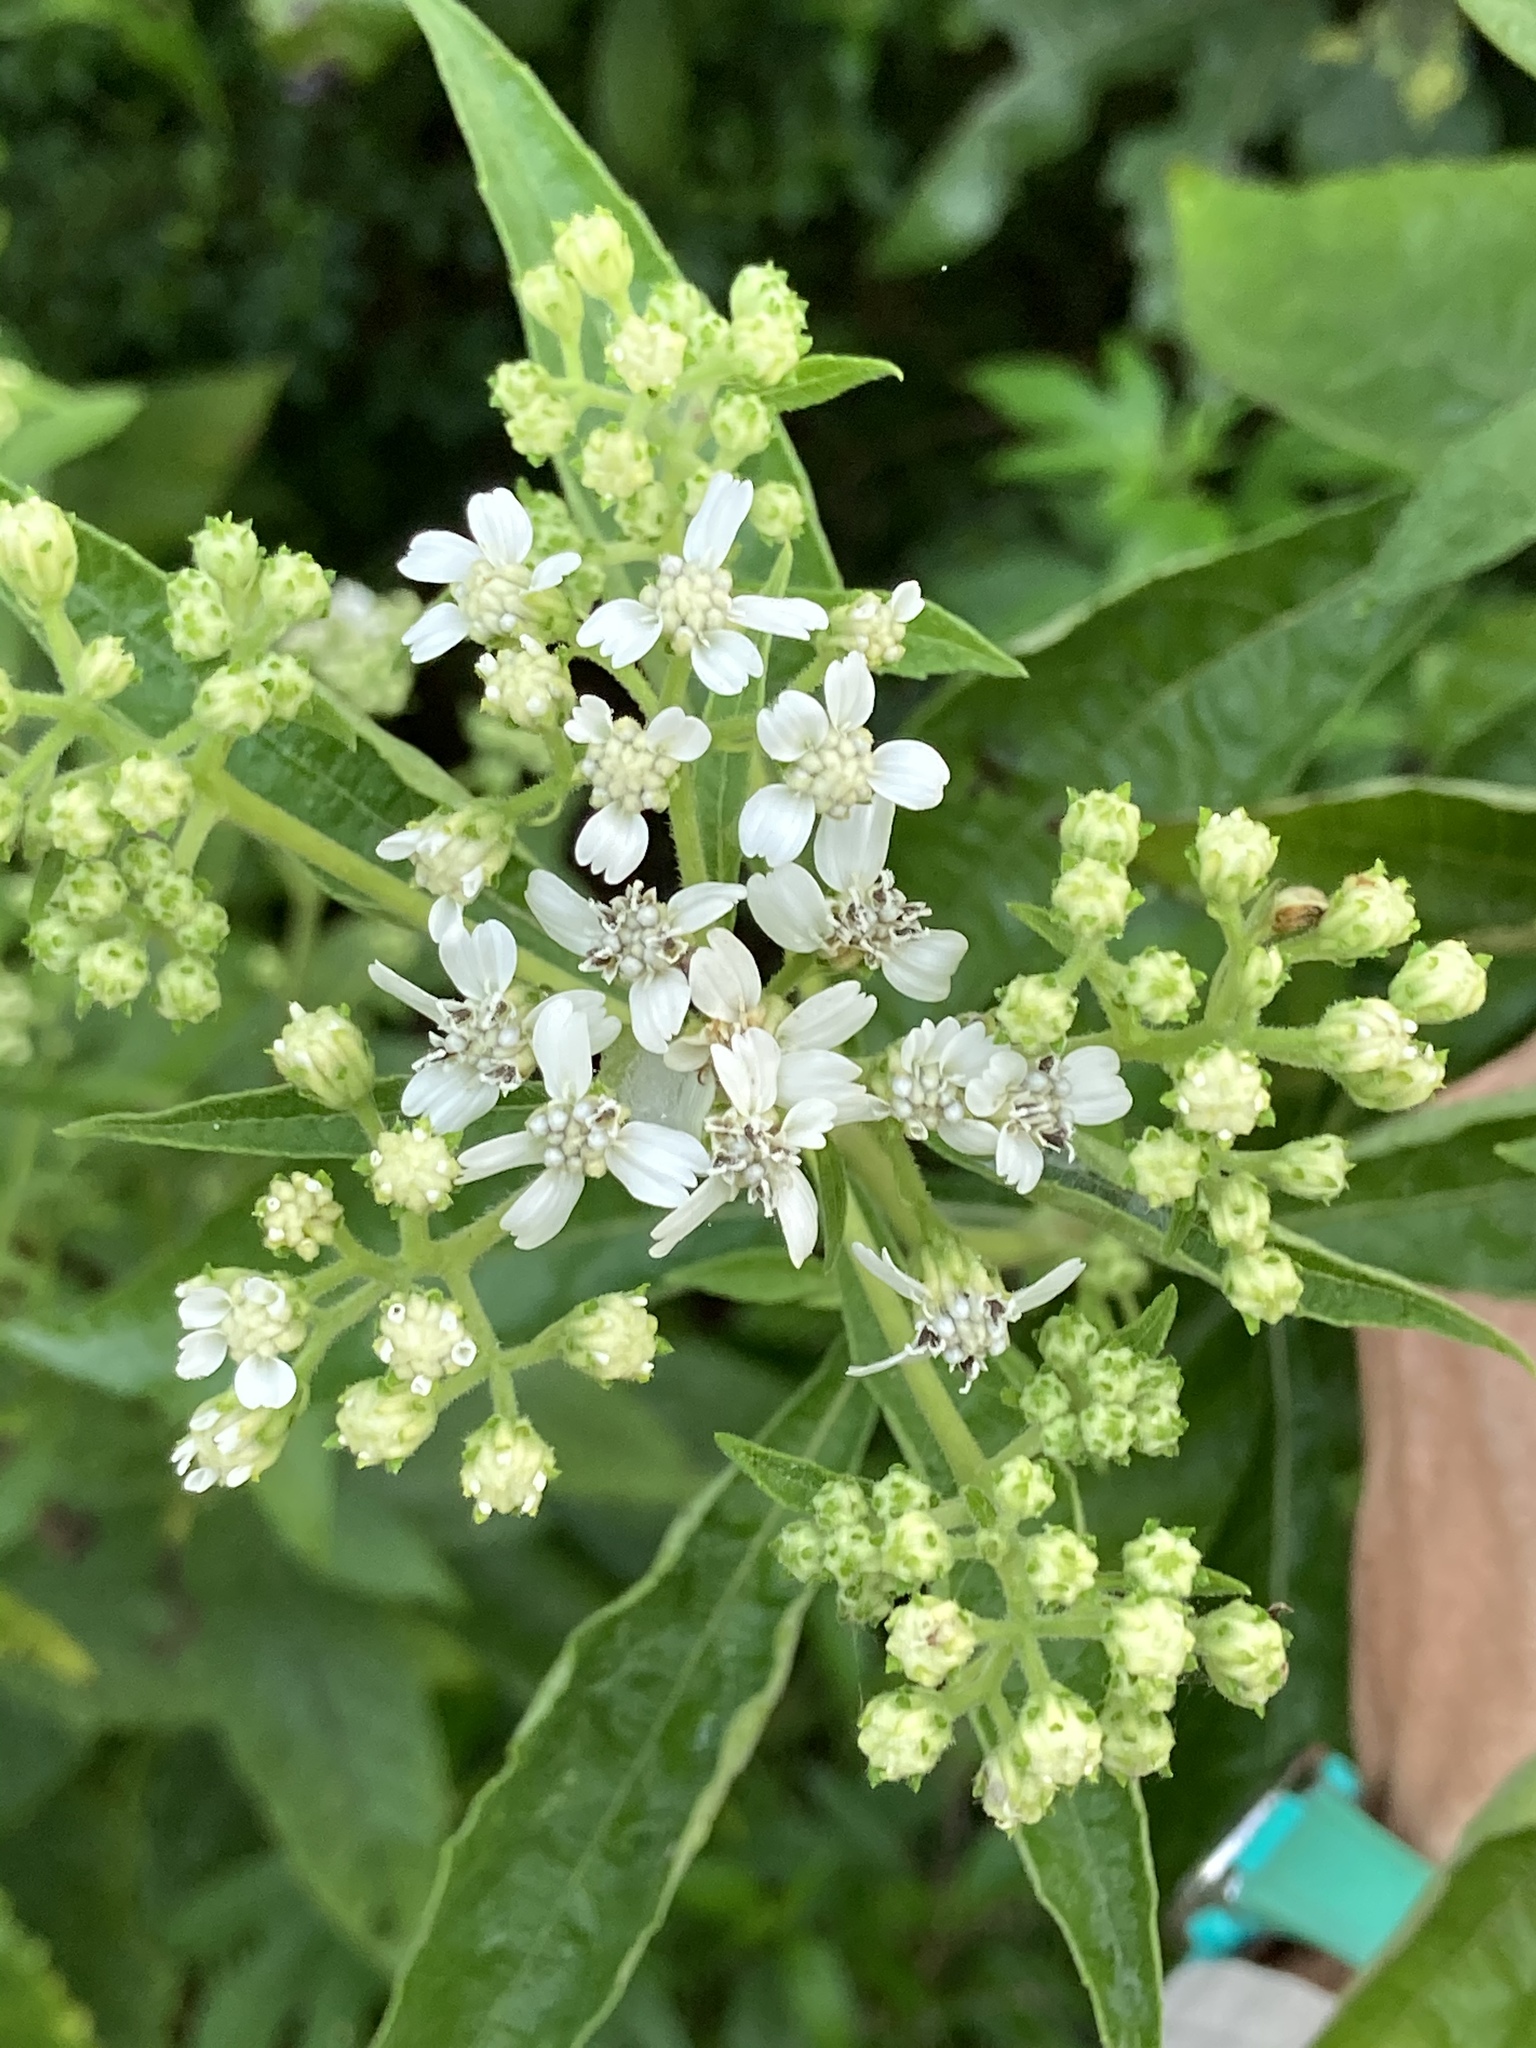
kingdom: Plantae
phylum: Tracheophyta
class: Magnoliopsida
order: Asterales
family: Asteraceae
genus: Verbesina
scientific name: Verbesina virginica
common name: Frostweed
